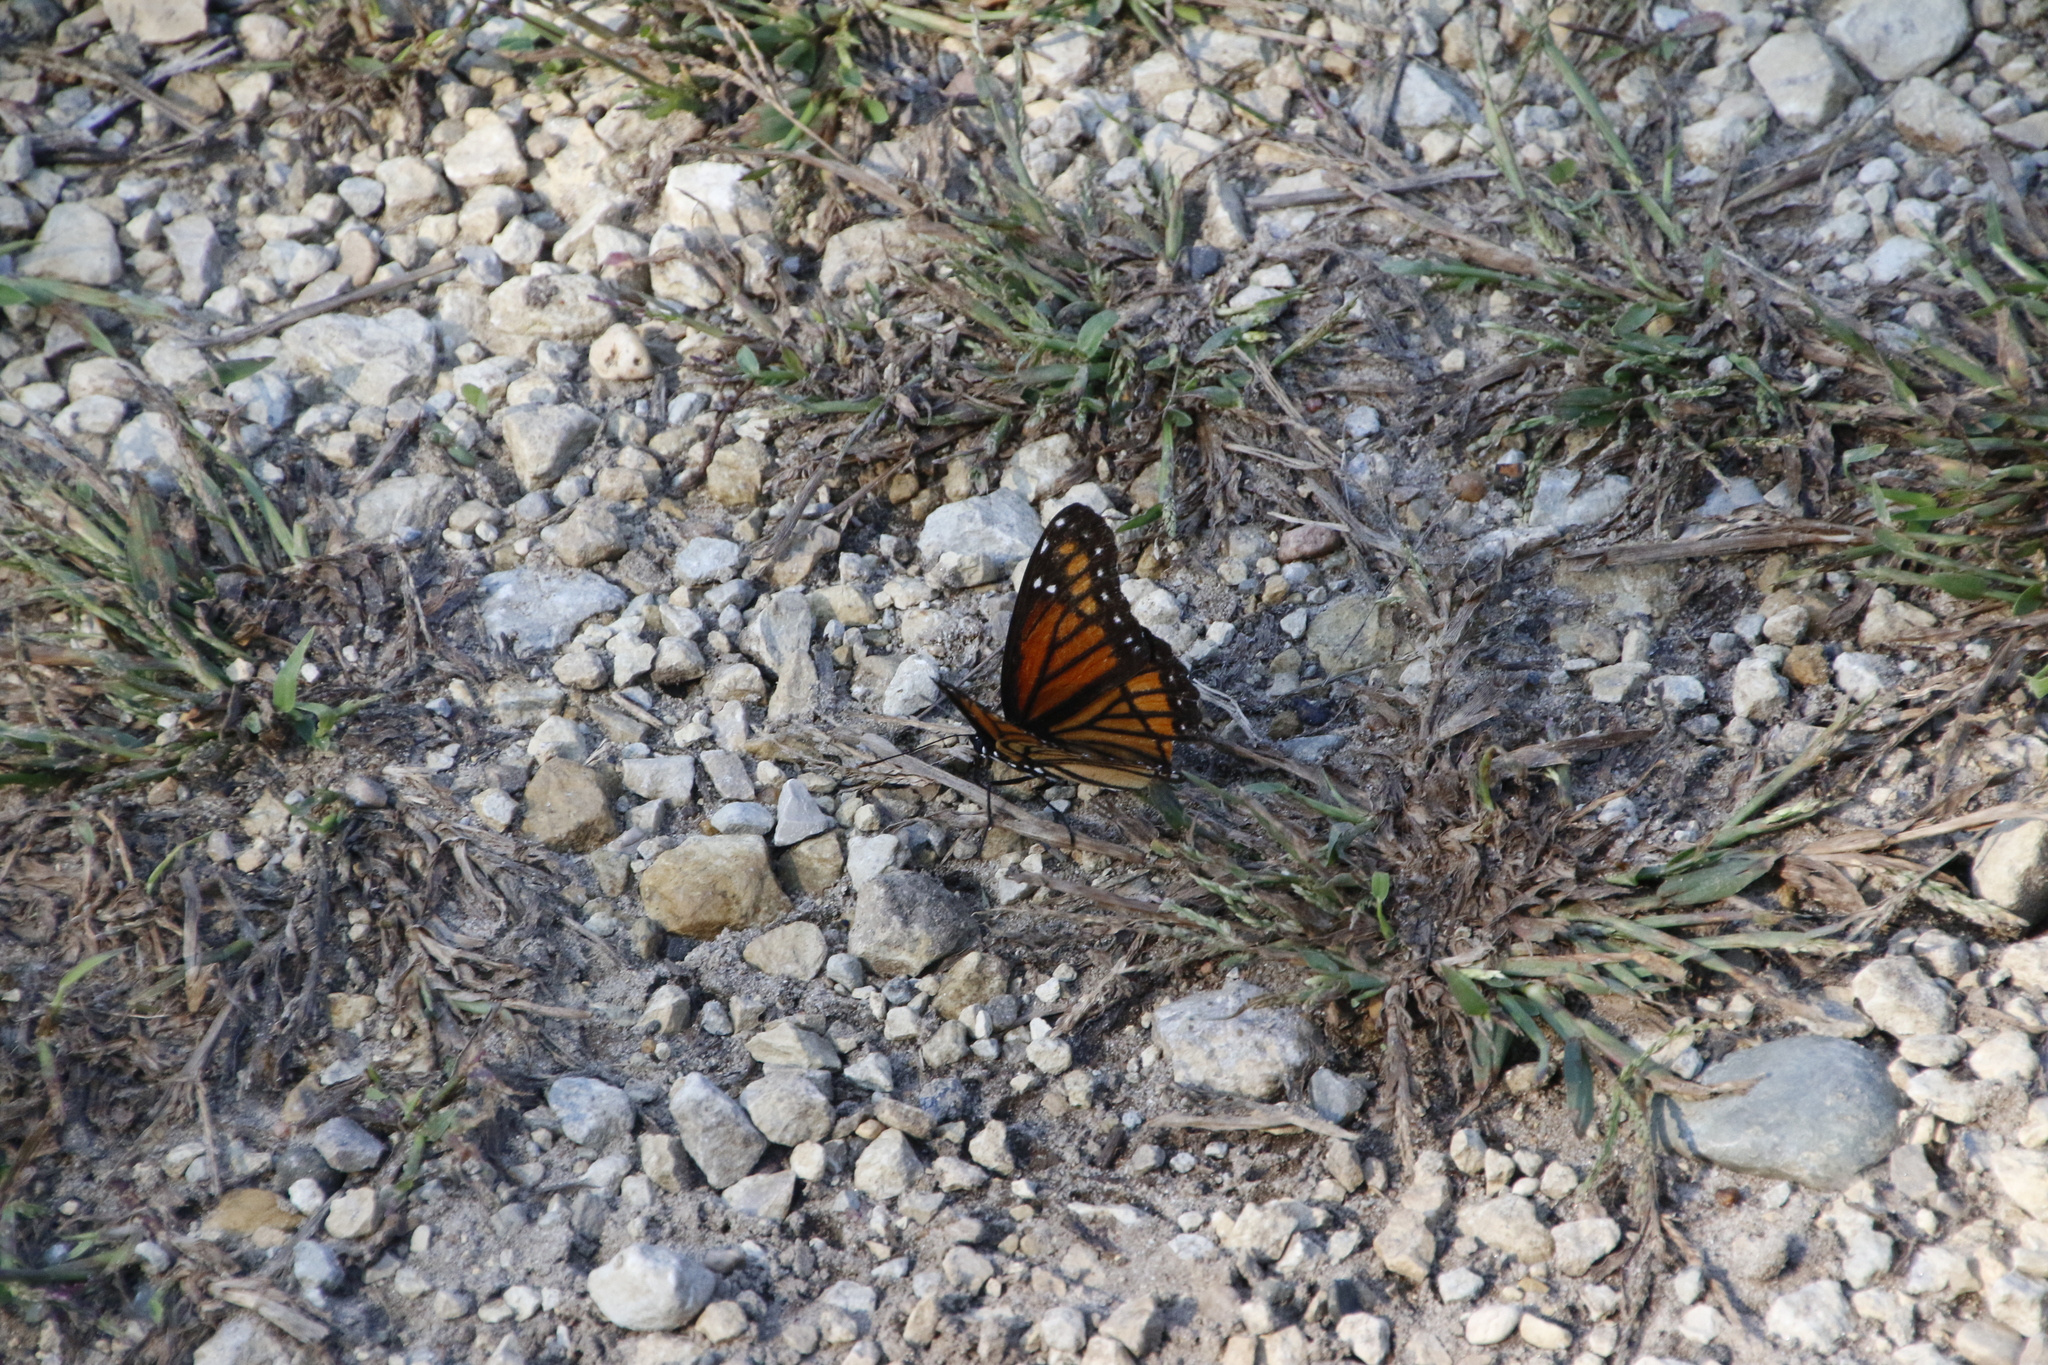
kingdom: Animalia
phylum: Arthropoda
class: Insecta
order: Lepidoptera
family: Nymphalidae
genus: Limenitis
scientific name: Limenitis archippus
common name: Viceroy
